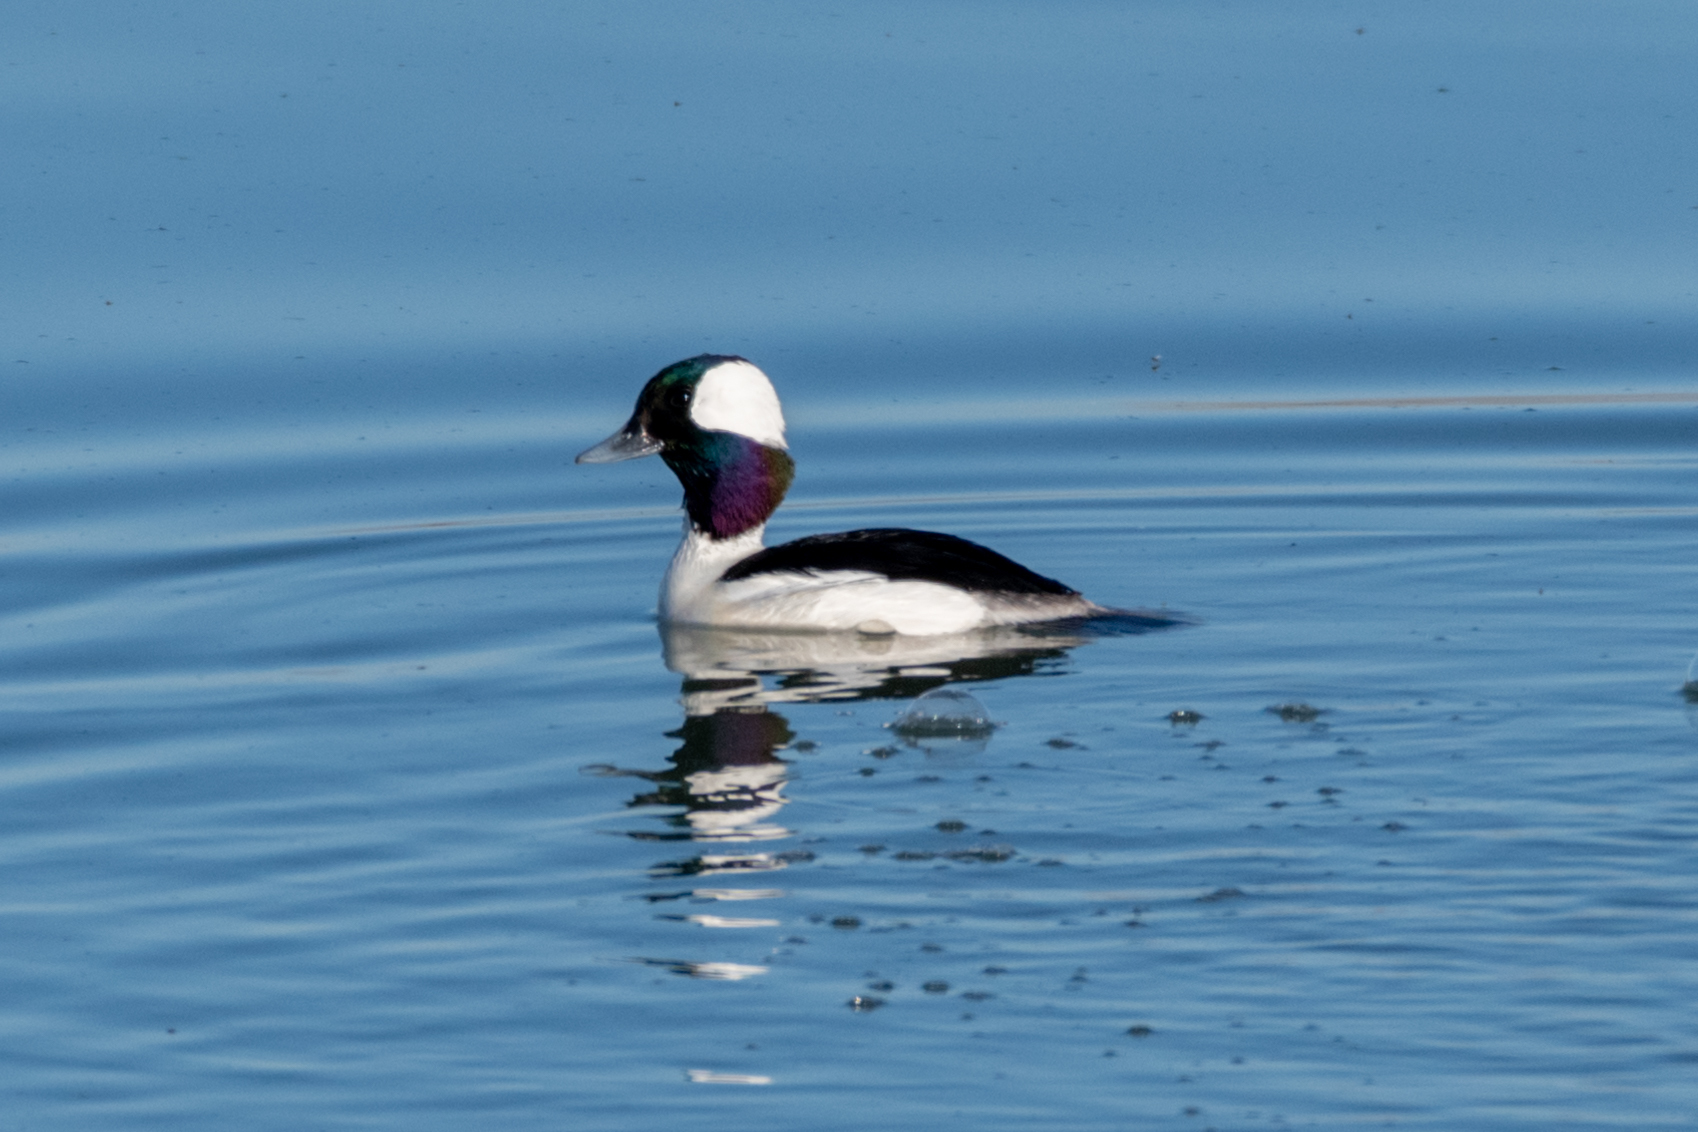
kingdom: Animalia
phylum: Chordata
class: Aves
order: Anseriformes
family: Anatidae
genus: Bucephala
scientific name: Bucephala albeola
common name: Bufflehead
